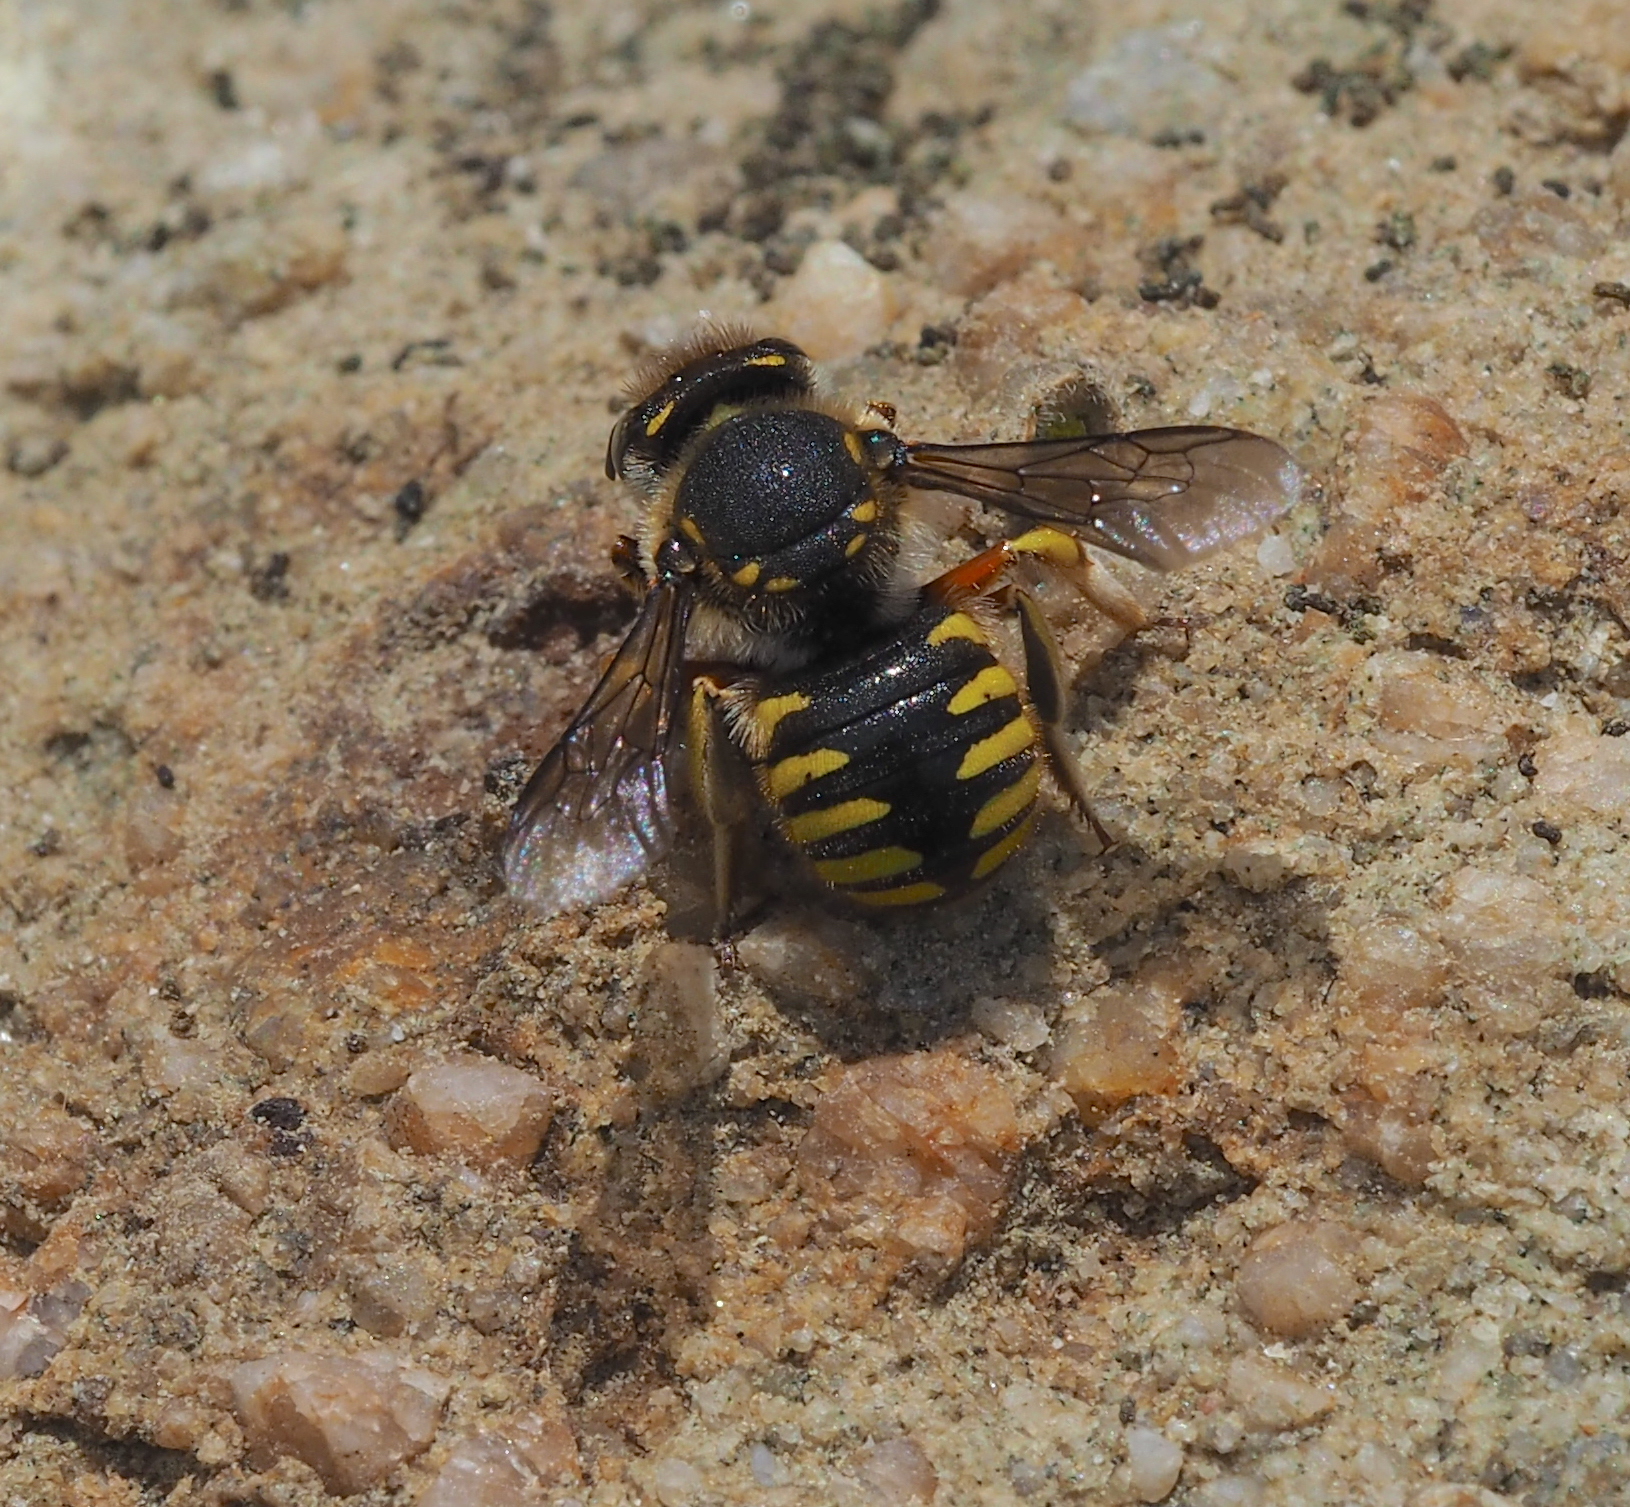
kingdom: Animalia
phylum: Arthropoda
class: Insecta
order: Hymenoptera
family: Megachilidae
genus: Anthidium
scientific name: Anthidium manicatum
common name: Wool carder bee
